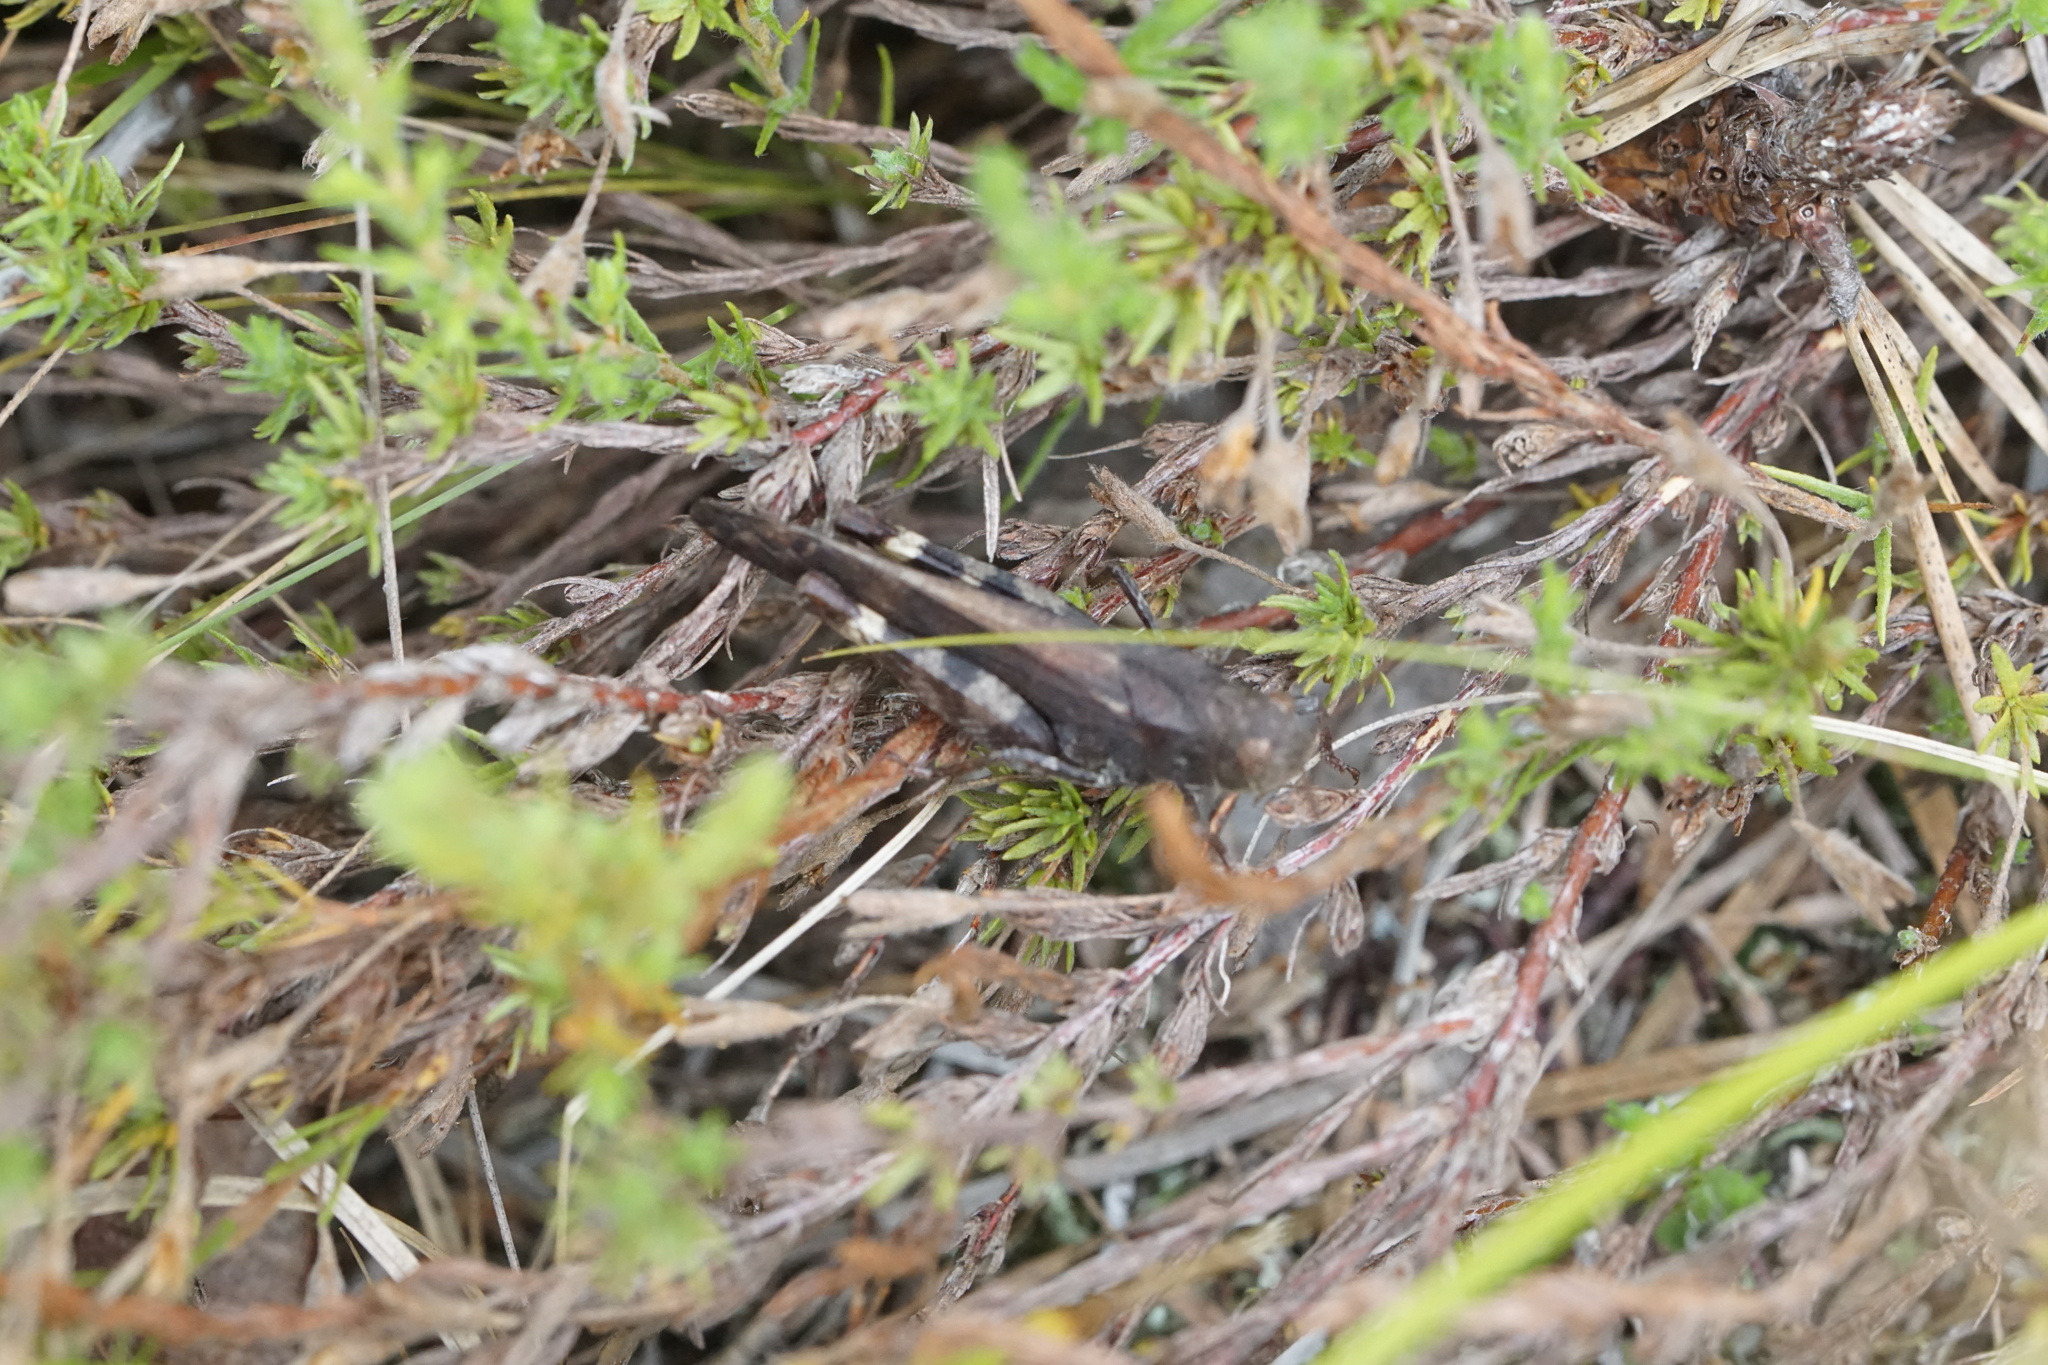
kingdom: Animalia
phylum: Arthropoda
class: Insecta
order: Orthoptera
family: Acrididae
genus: Arphia
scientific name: Arphia sulphurea
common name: Spring yellow-winged locust
